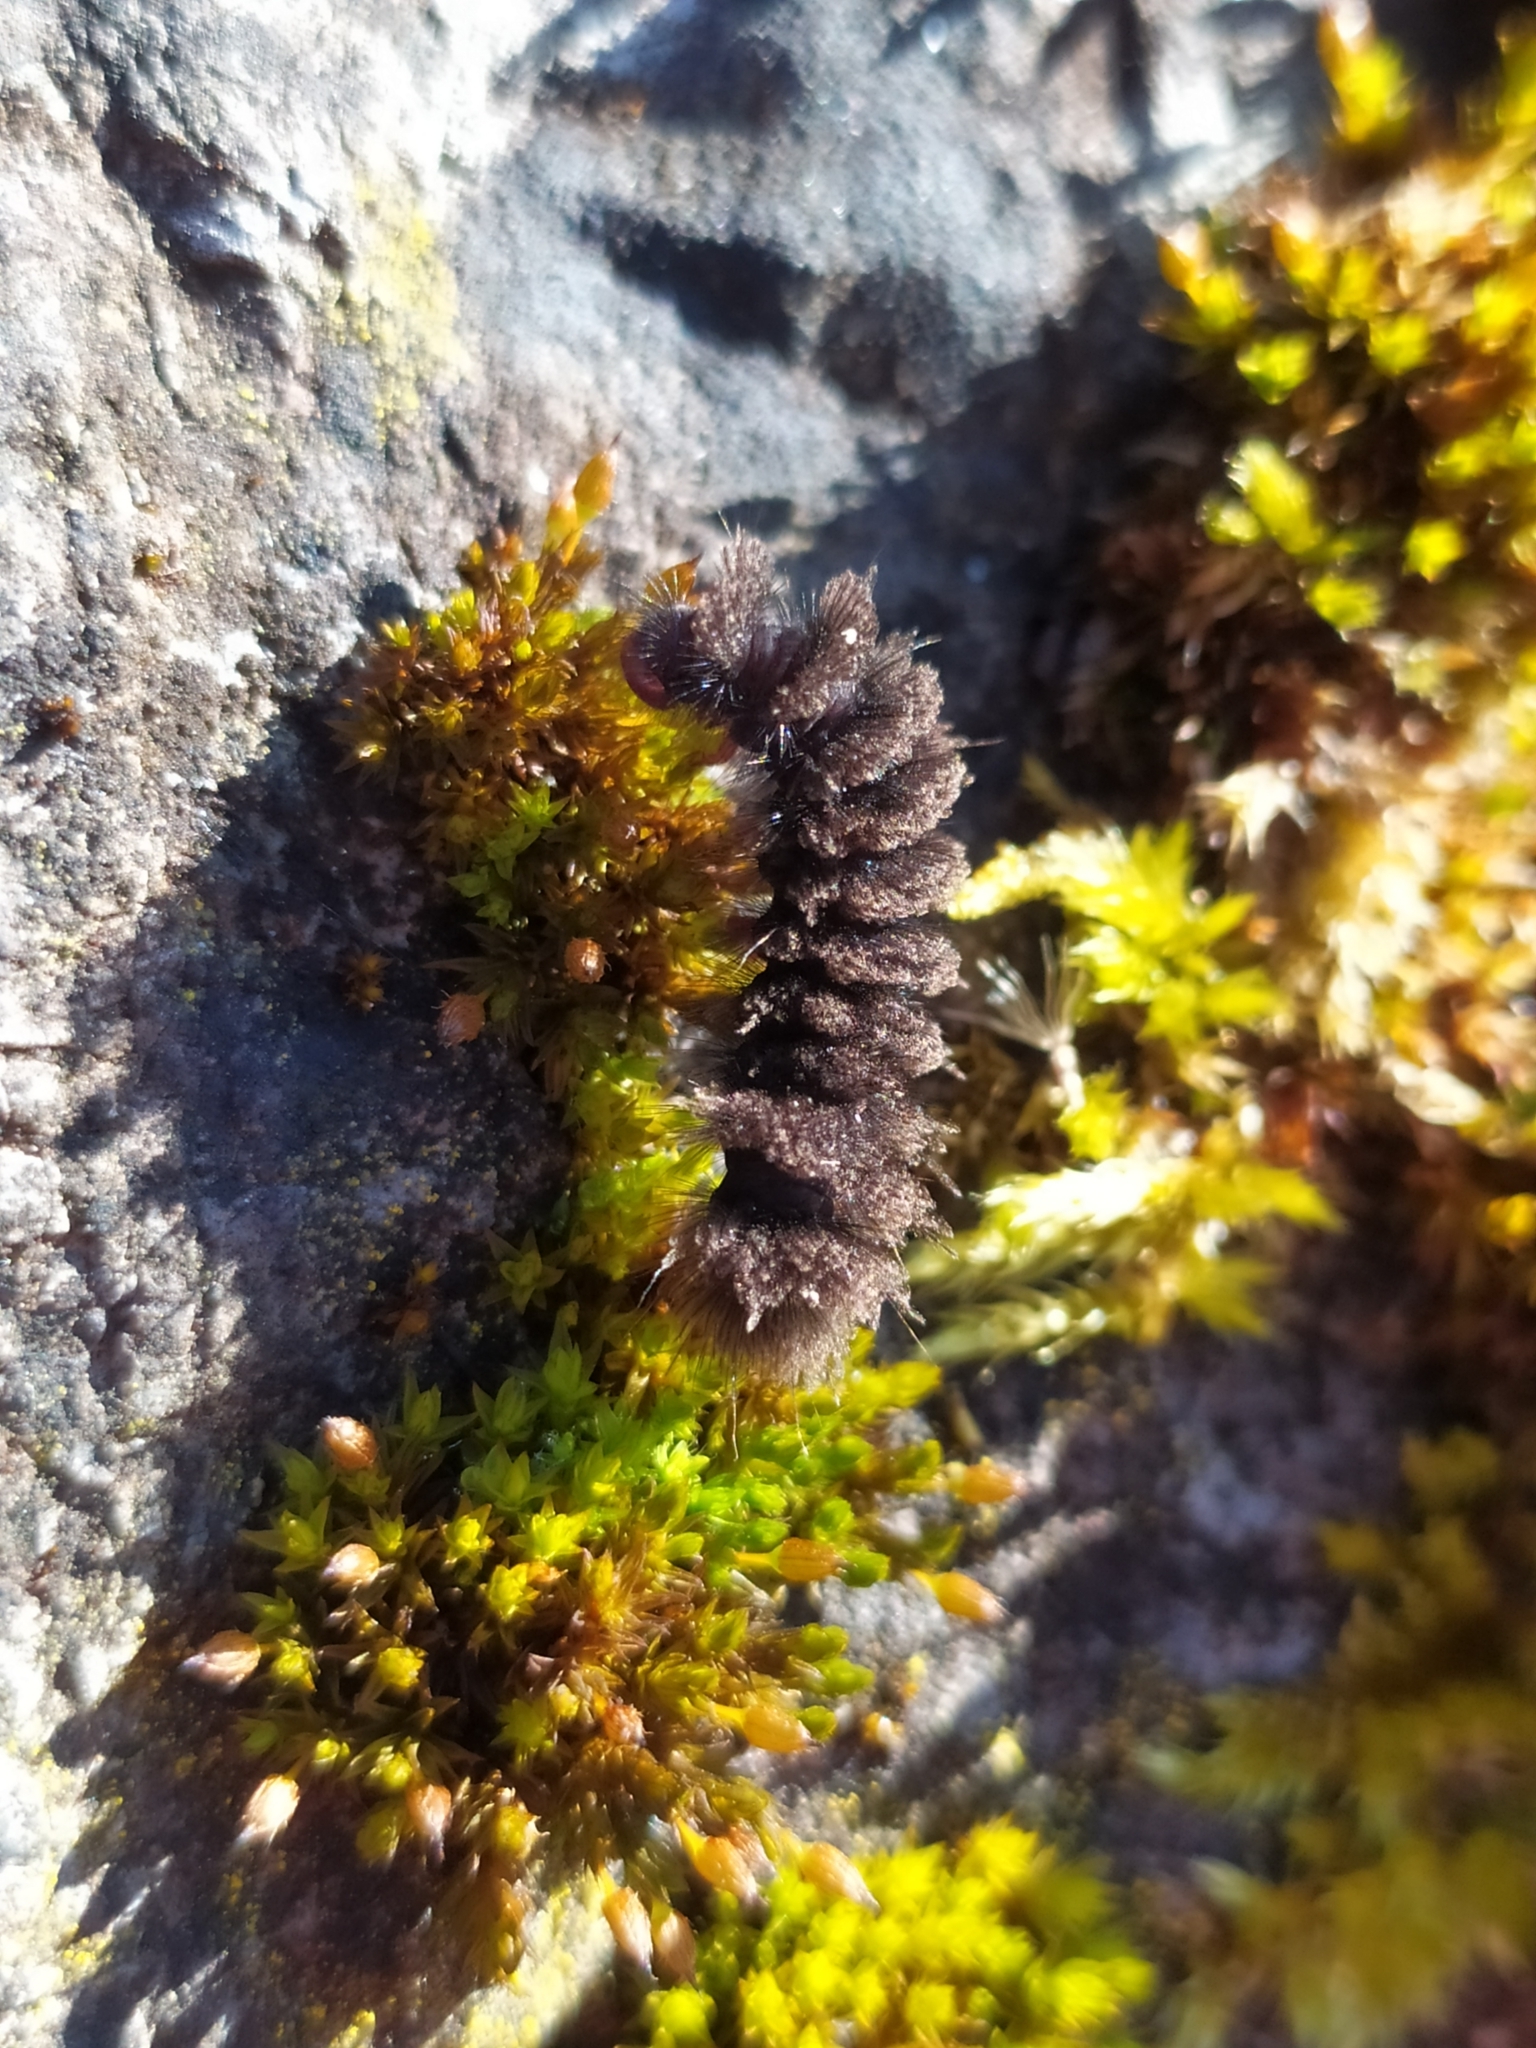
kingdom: Animalia
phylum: Arthropoda
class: Insecta
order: Lepidoptera
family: Erebidae
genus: Amata
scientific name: Amata phegea
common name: Nine-spotted
